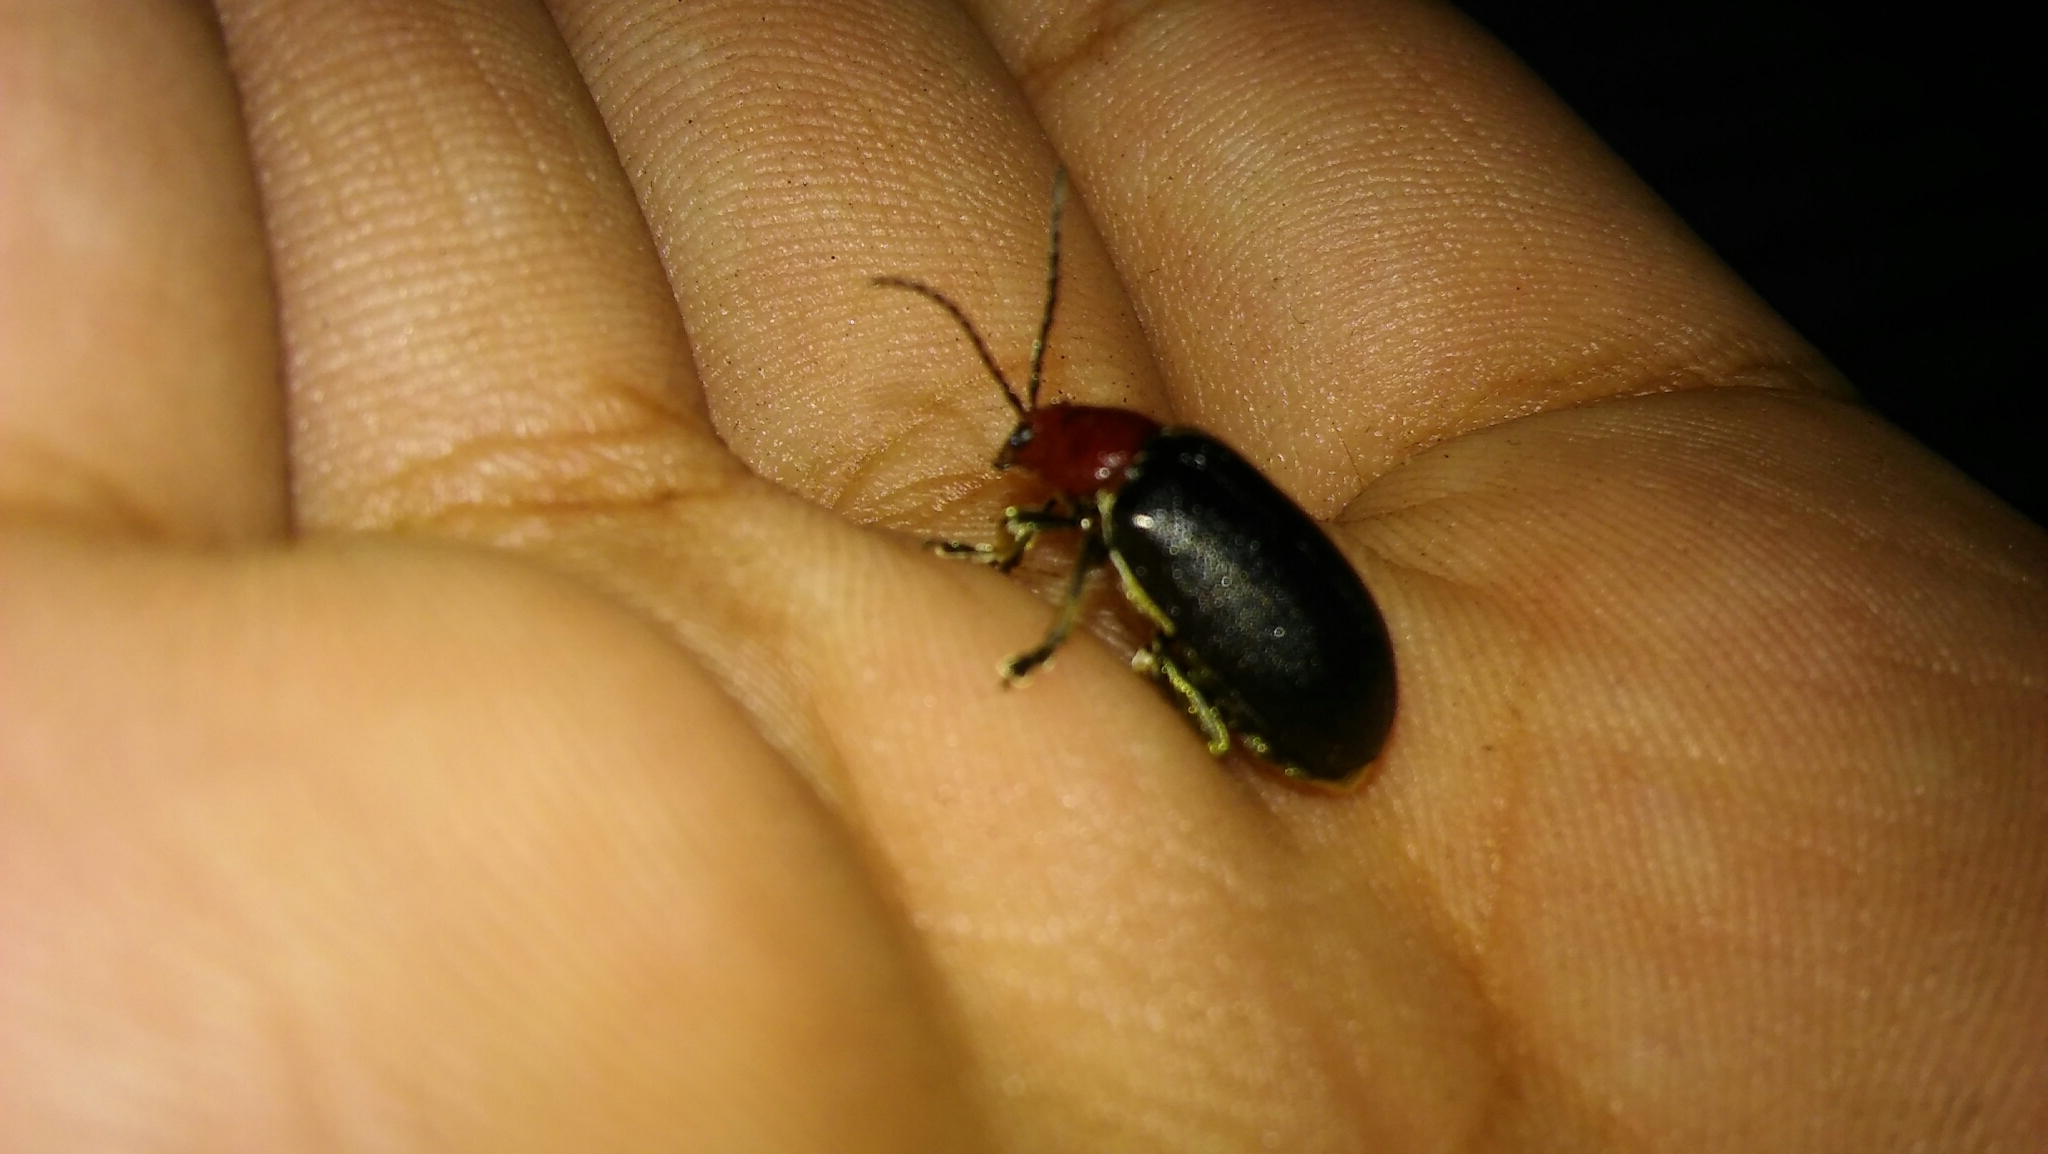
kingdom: Animalia
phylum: Arthropoda
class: Insecta
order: Coleoptera
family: Chrysomelidae
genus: Cacoscelis
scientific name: Cacoscelis
